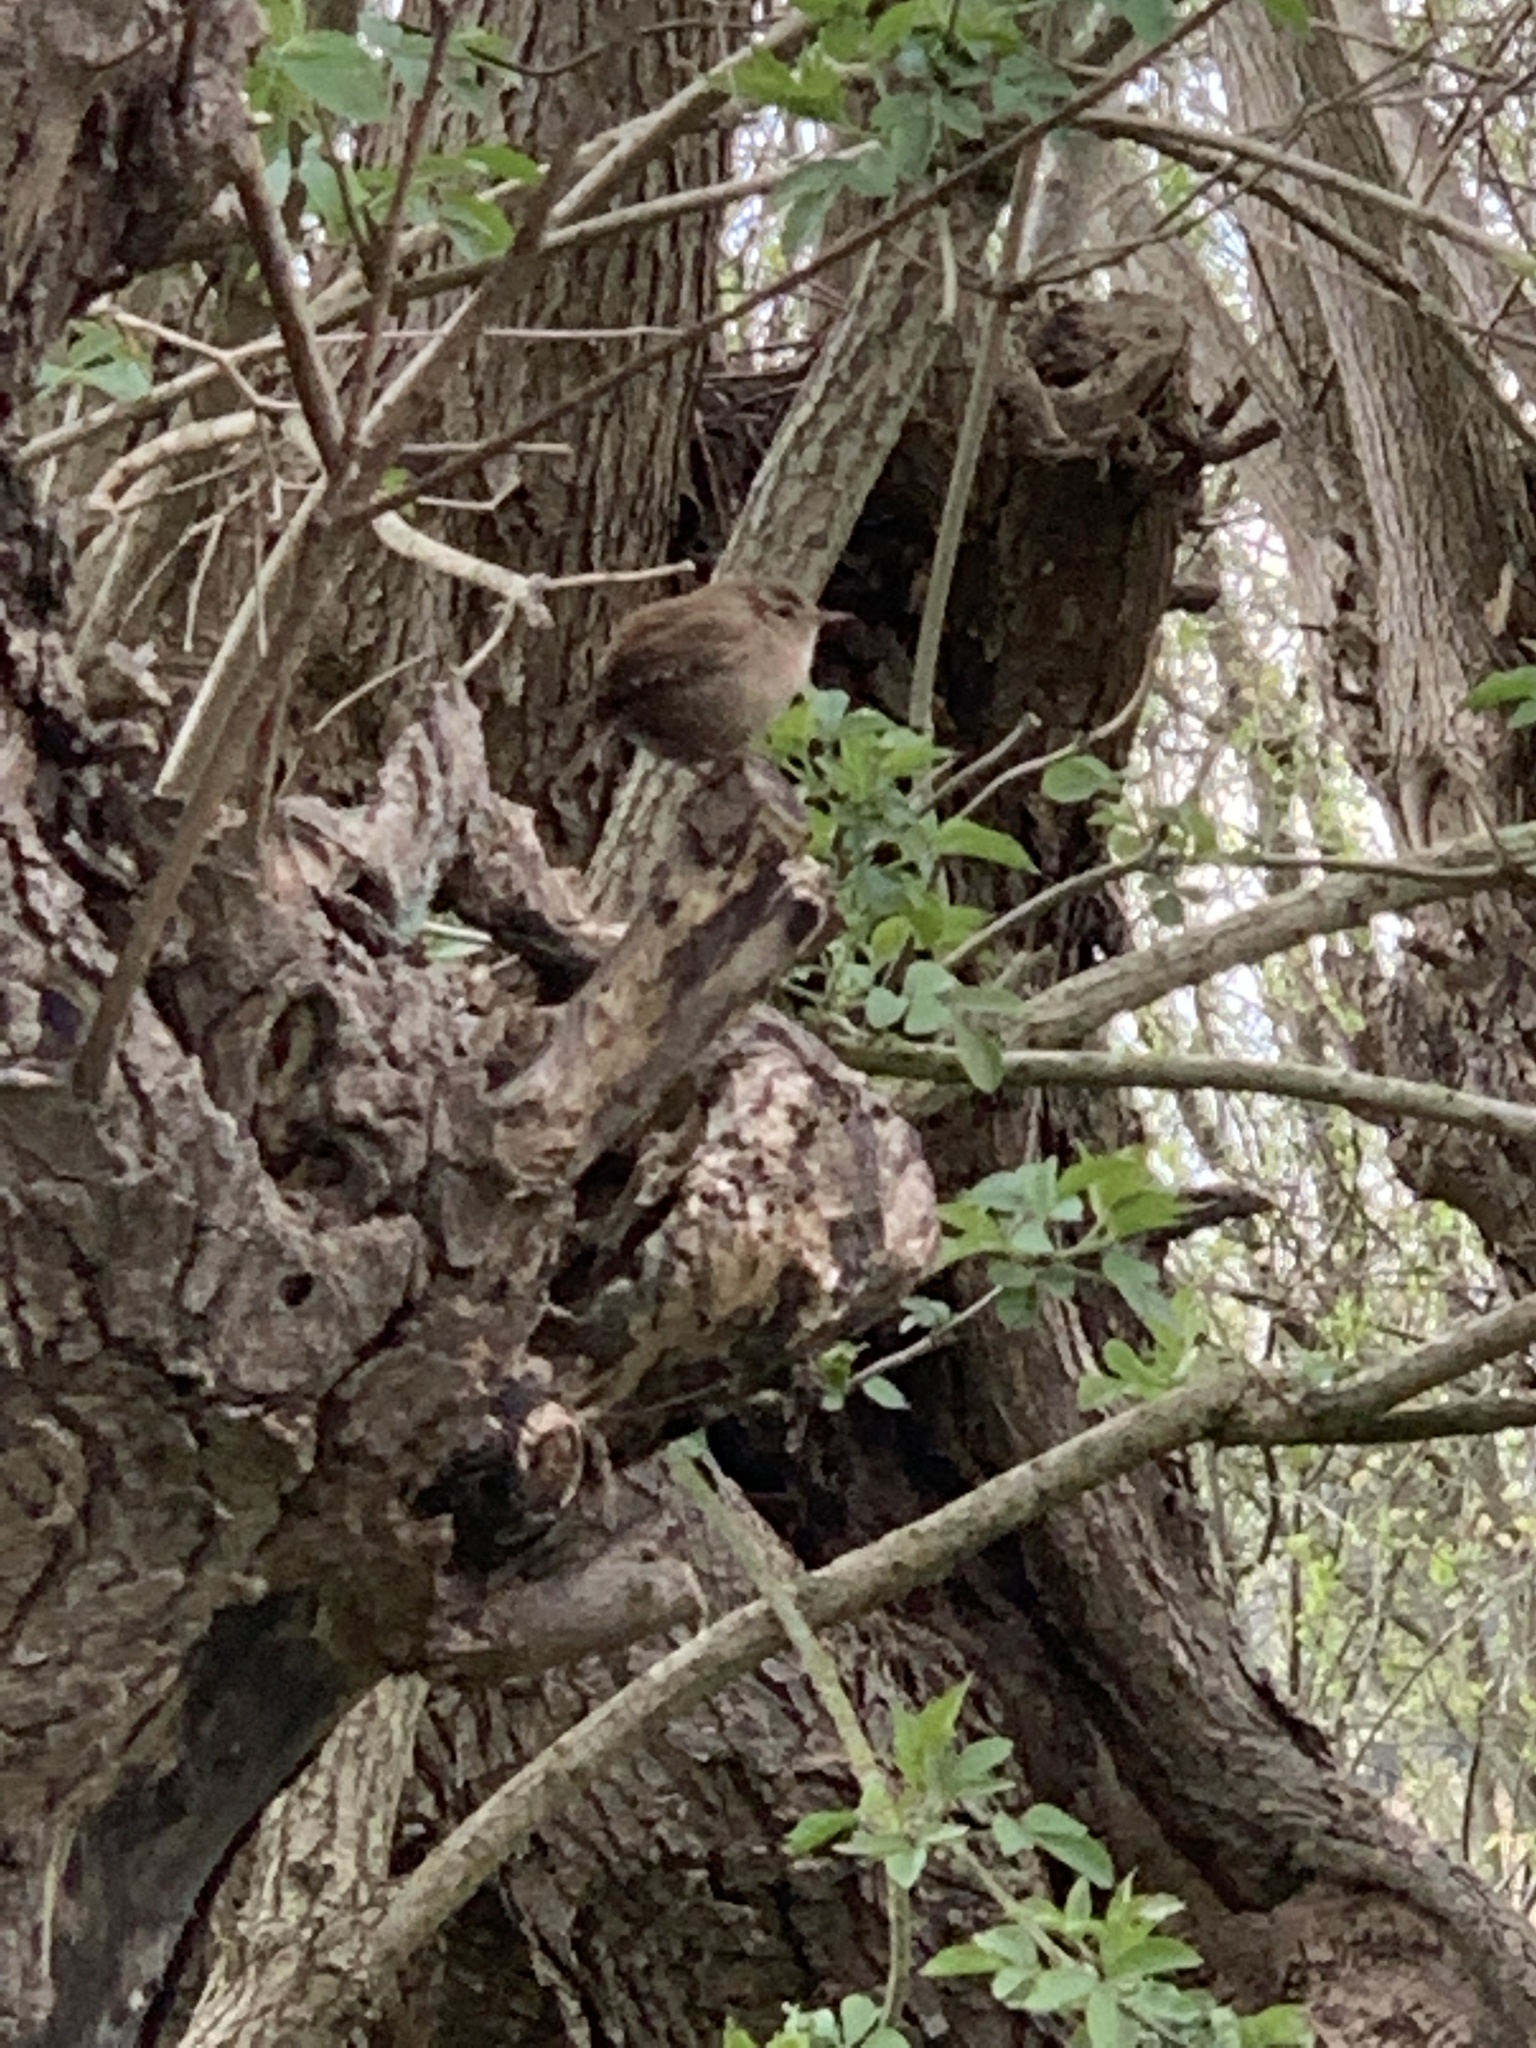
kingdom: Animalia
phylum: Chordata
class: Aves
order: Passeriformes
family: Troglodytidae
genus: Troglodytes
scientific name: Troglodytes troglodytes
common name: Eurasian wren
